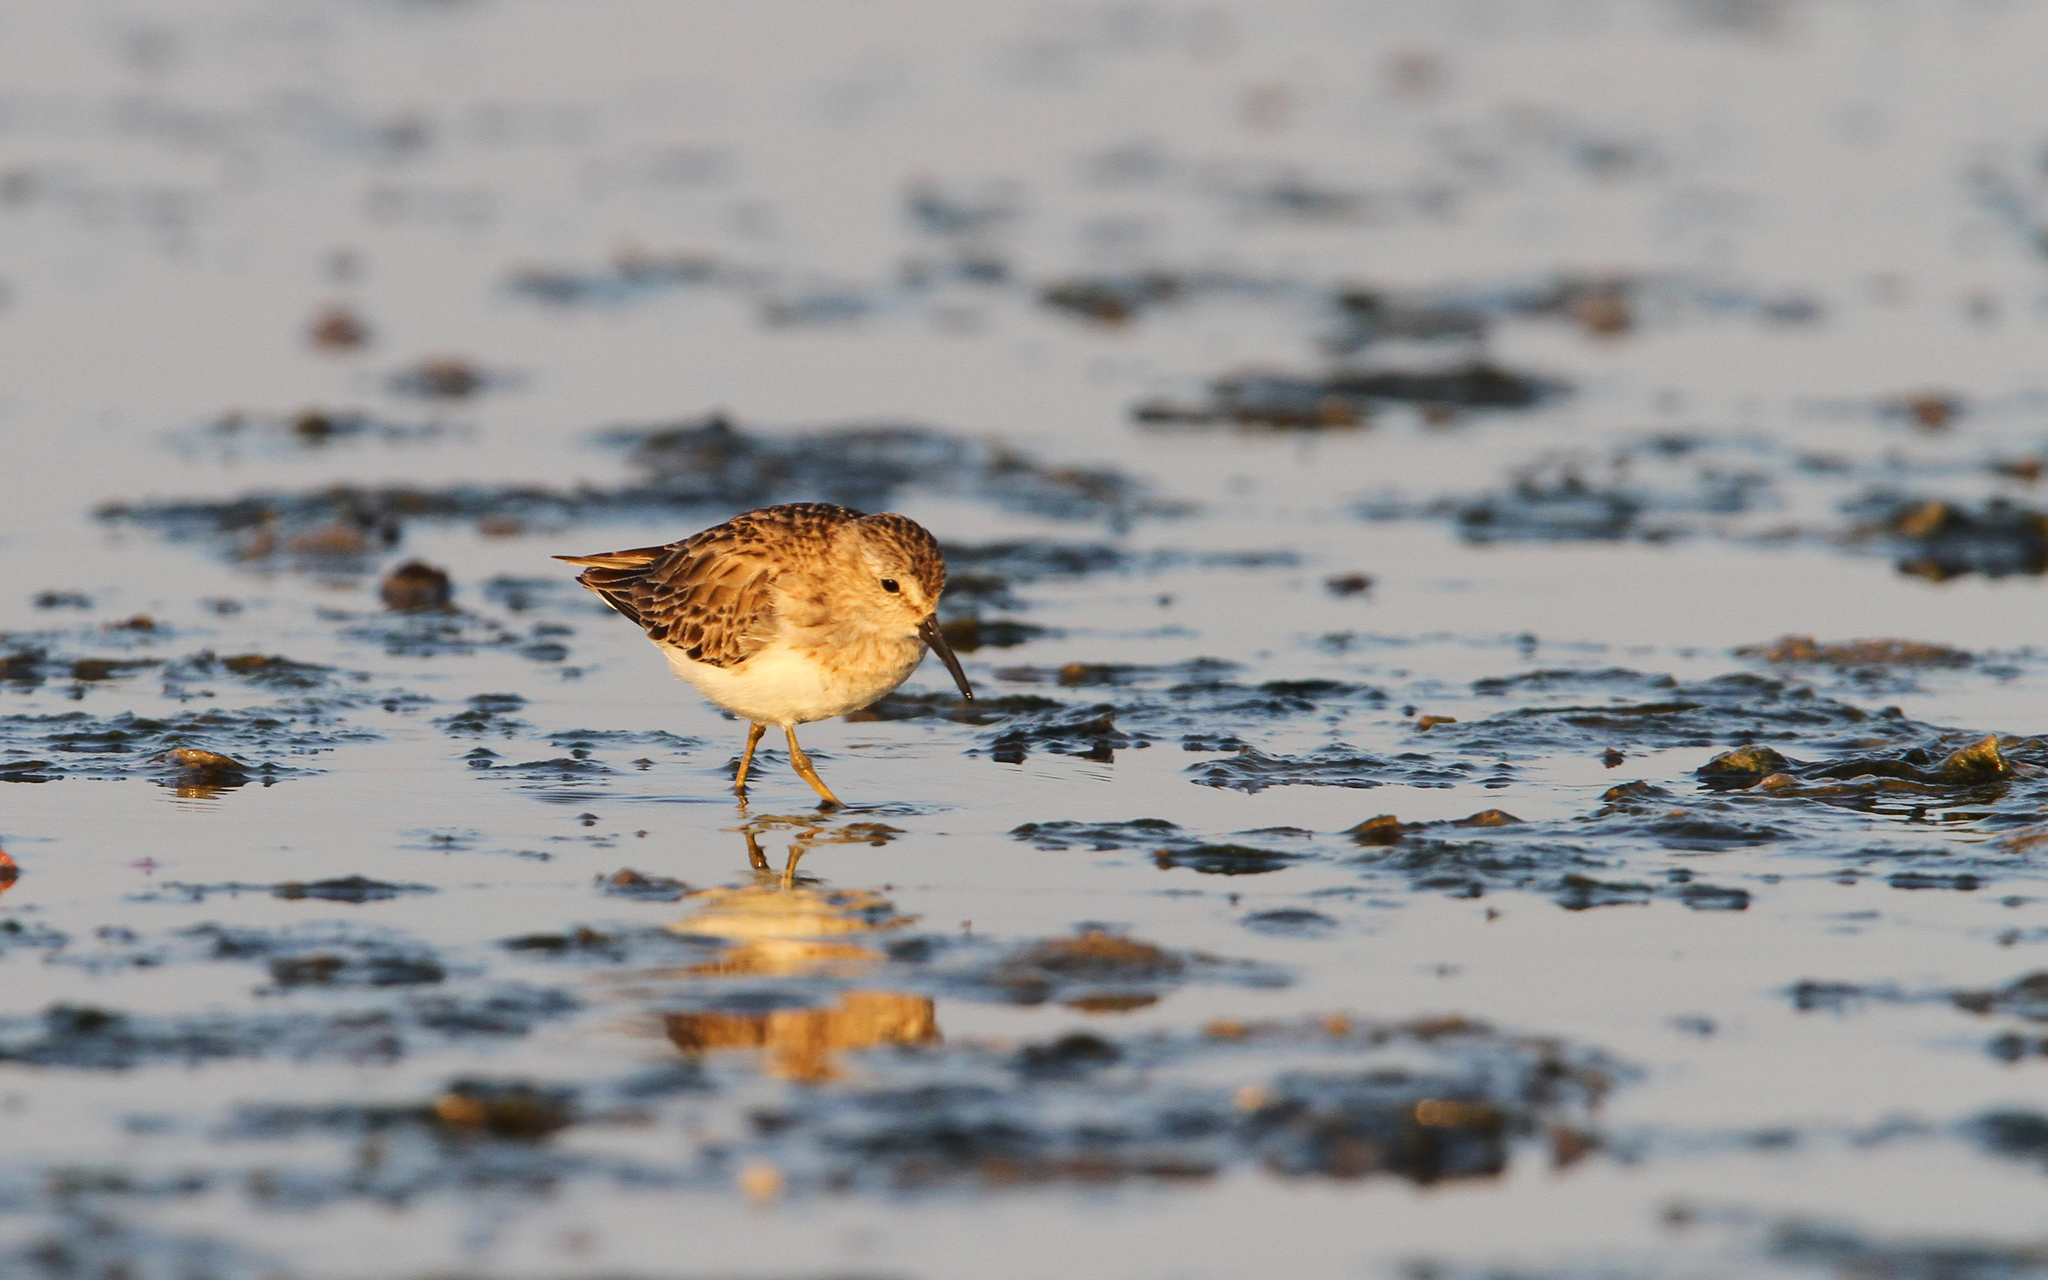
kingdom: Animalia
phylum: Chordata
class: Aves
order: Charadriiformes
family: Scolopacidae
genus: Calidris
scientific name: Calidris minutilla
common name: Least sandpiper
